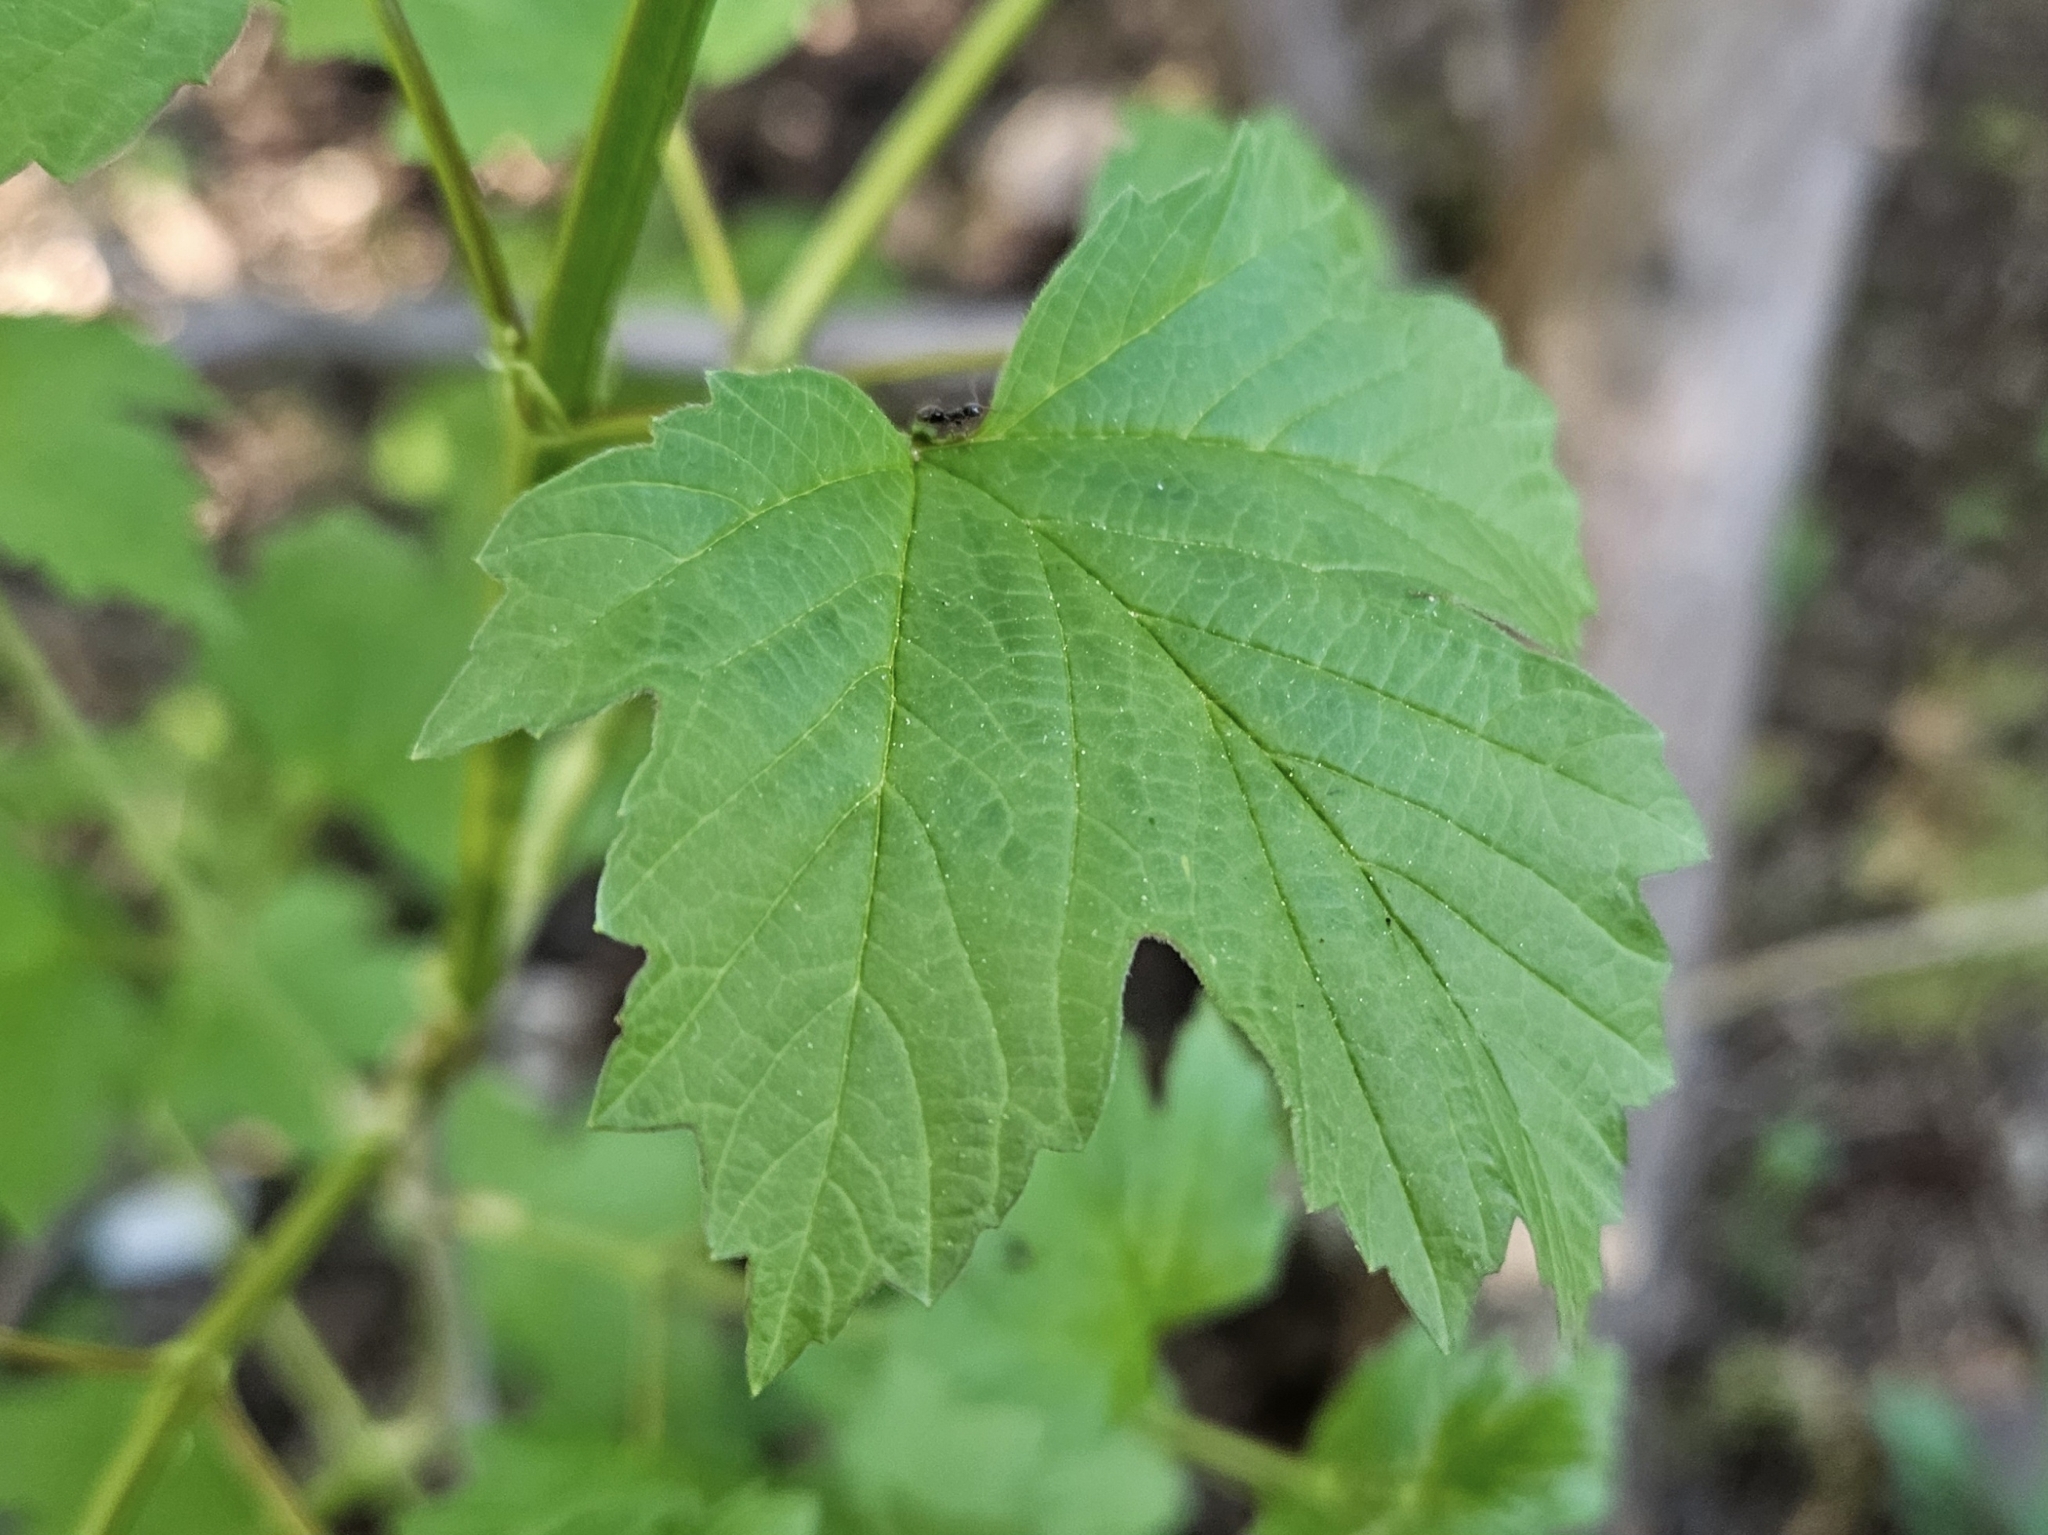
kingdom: Plantae
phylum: Tracheophyta
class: Magnoliopsida
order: Dipsacales
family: Viburnaceae
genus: Viburnum
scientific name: Viburnum opulus
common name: Guelder-rose
